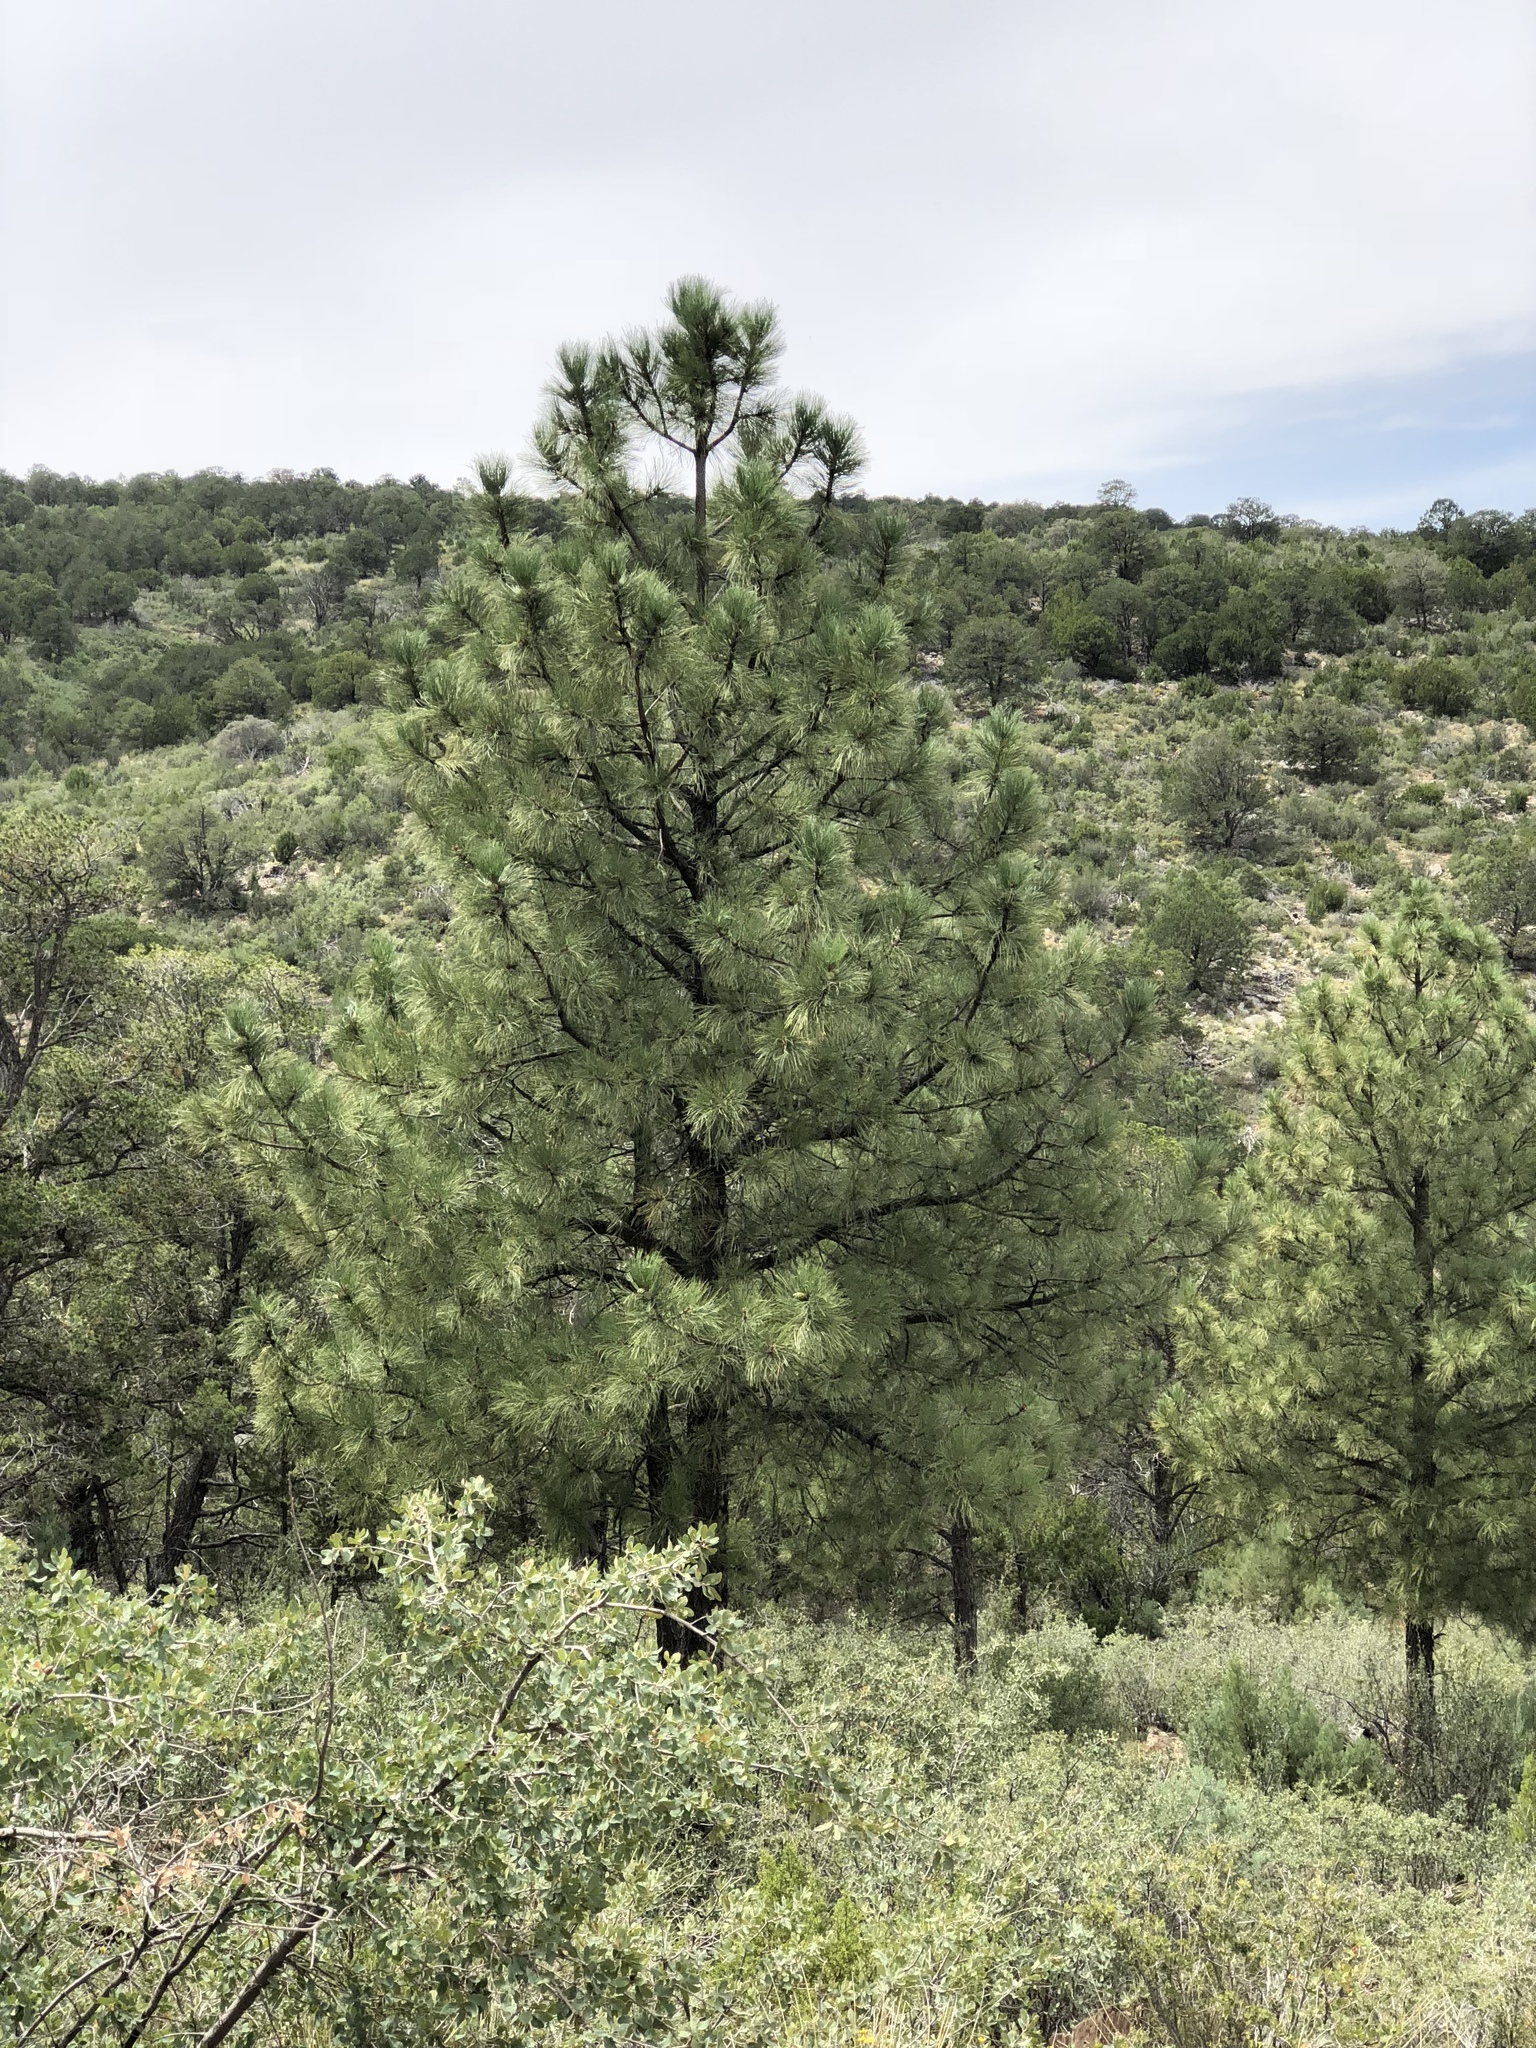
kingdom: Plantae
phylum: Tracheophyta
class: Pinopsida
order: Pinales
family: Pinaceae
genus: Pinus
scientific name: Pinus ponderosa
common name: Western yellow-pine
